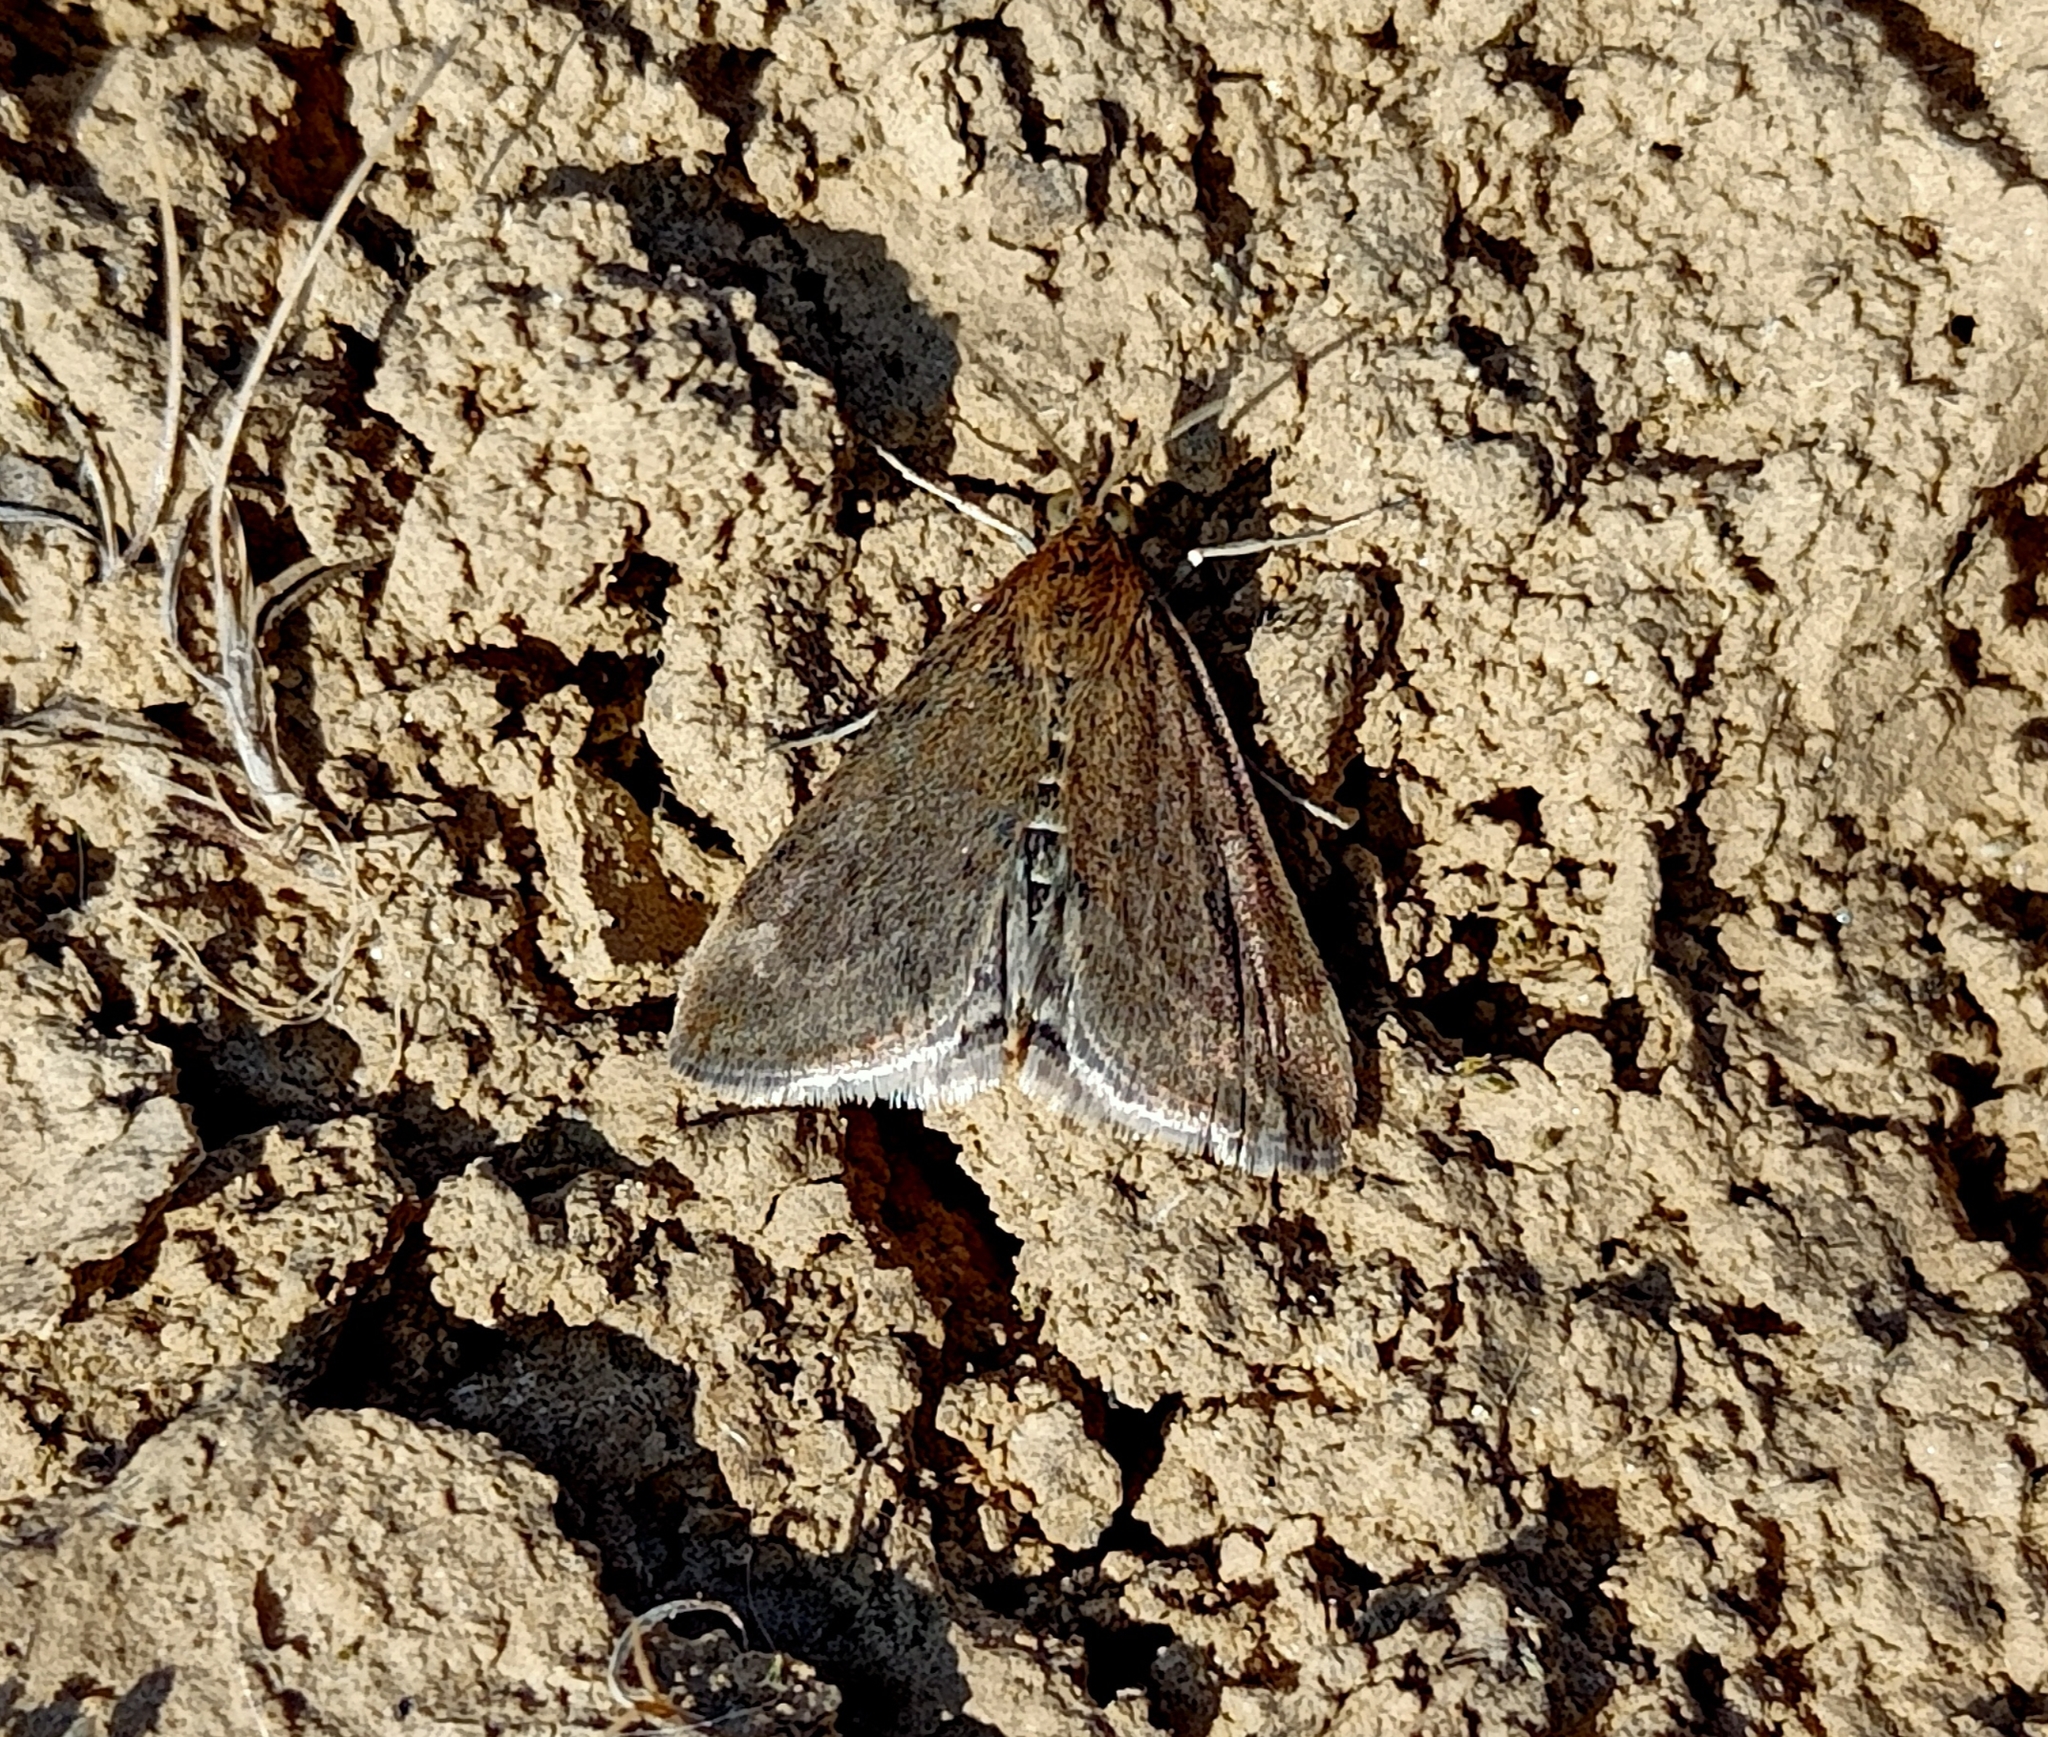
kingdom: Animalia
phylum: Arthropoda
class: Insecta
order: Lepidoptera
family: Crambidae
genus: Pyrausta
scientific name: Pyrausta despicata
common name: Straw-barred pearl
